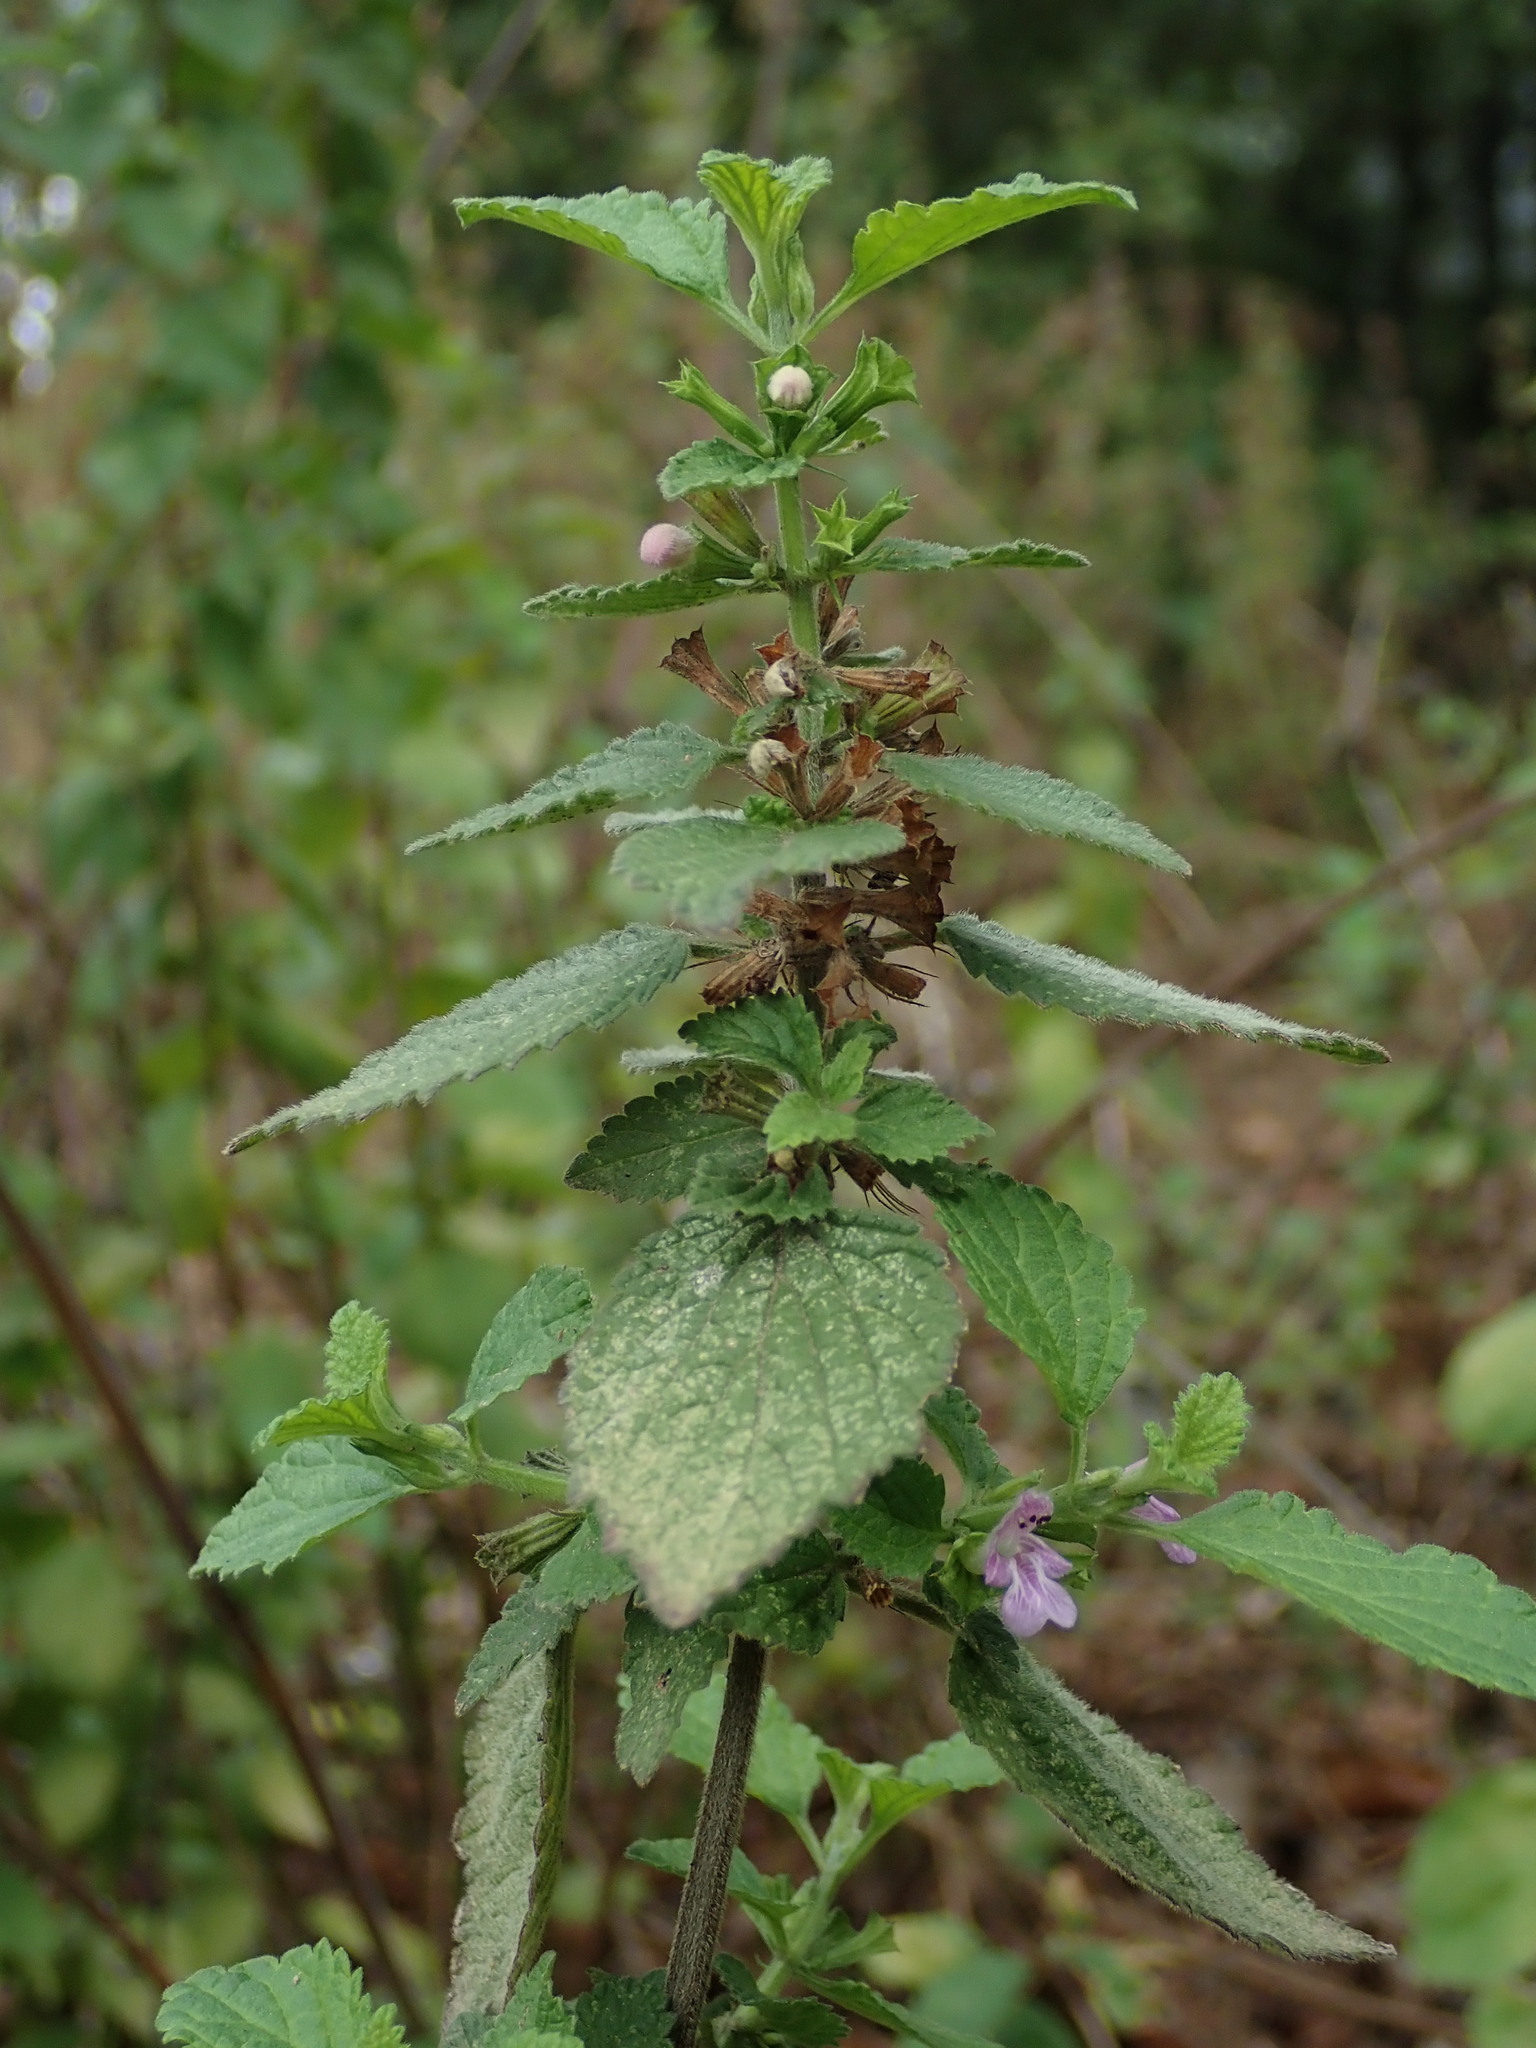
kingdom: Plantae
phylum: Tracheophyta
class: Magnoliopsida
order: Lamiales
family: Lamiaceae
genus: Ballota
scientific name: Ballota nigra
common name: Black horehound
